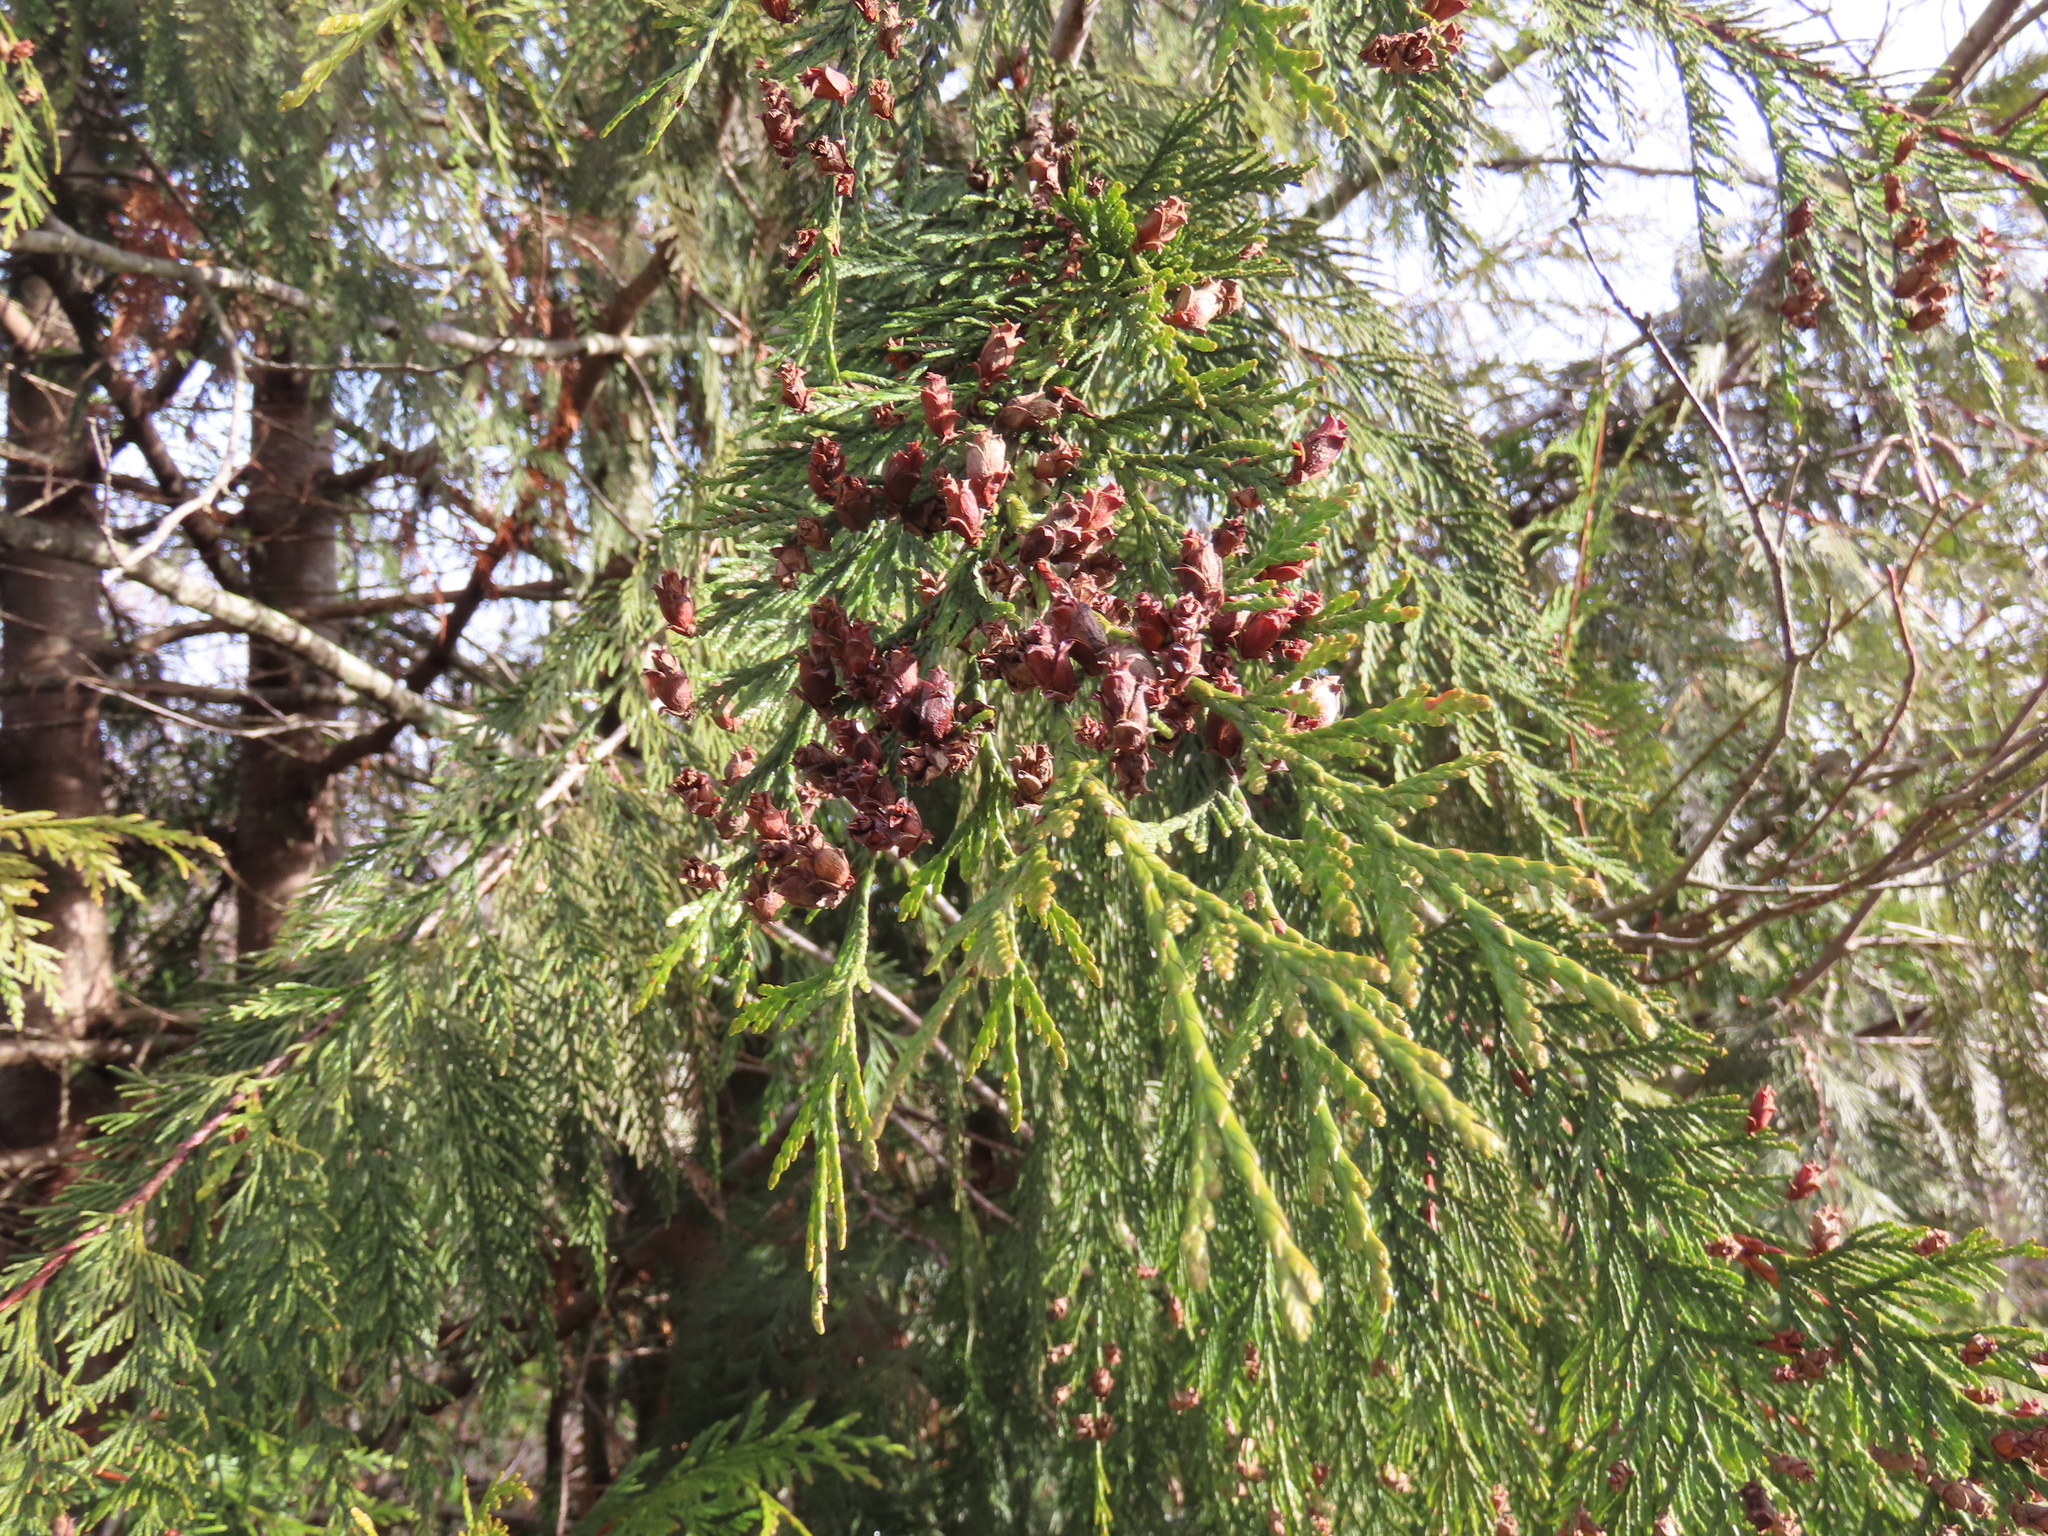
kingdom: Plantae
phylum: Tracheophyta
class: Pinopsida
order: Pinales
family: Cupressaceae
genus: Thuja
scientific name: Thuja plicata
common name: Western red-cedar
